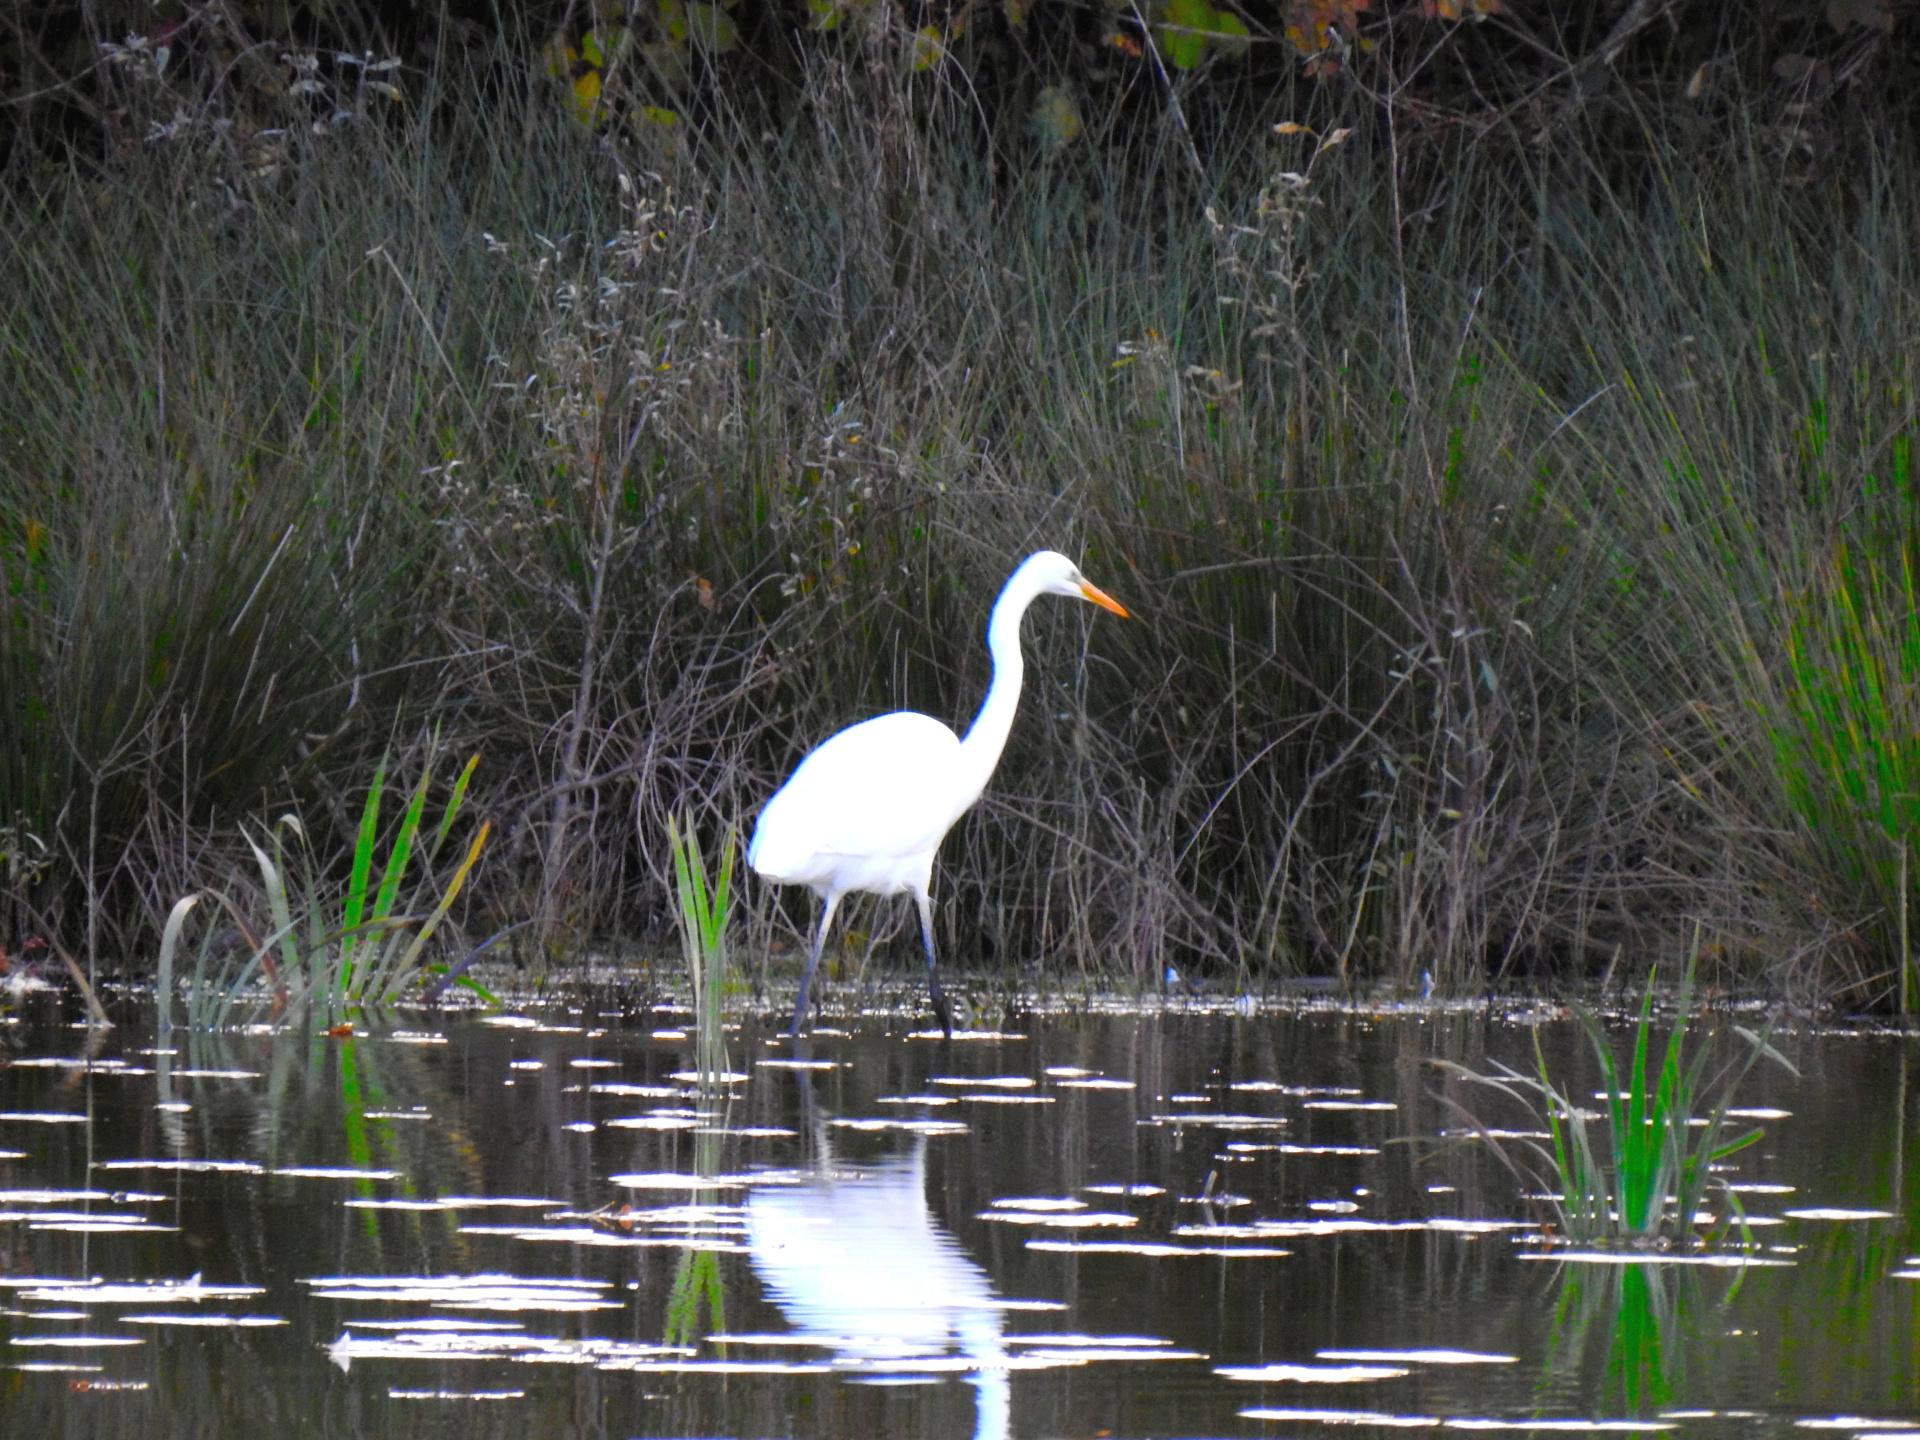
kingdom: Animalia
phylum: Chordata
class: Aves
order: Pelecaniformes
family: Ardeidae
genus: Ardea
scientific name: Ardea alba
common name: Great egret
